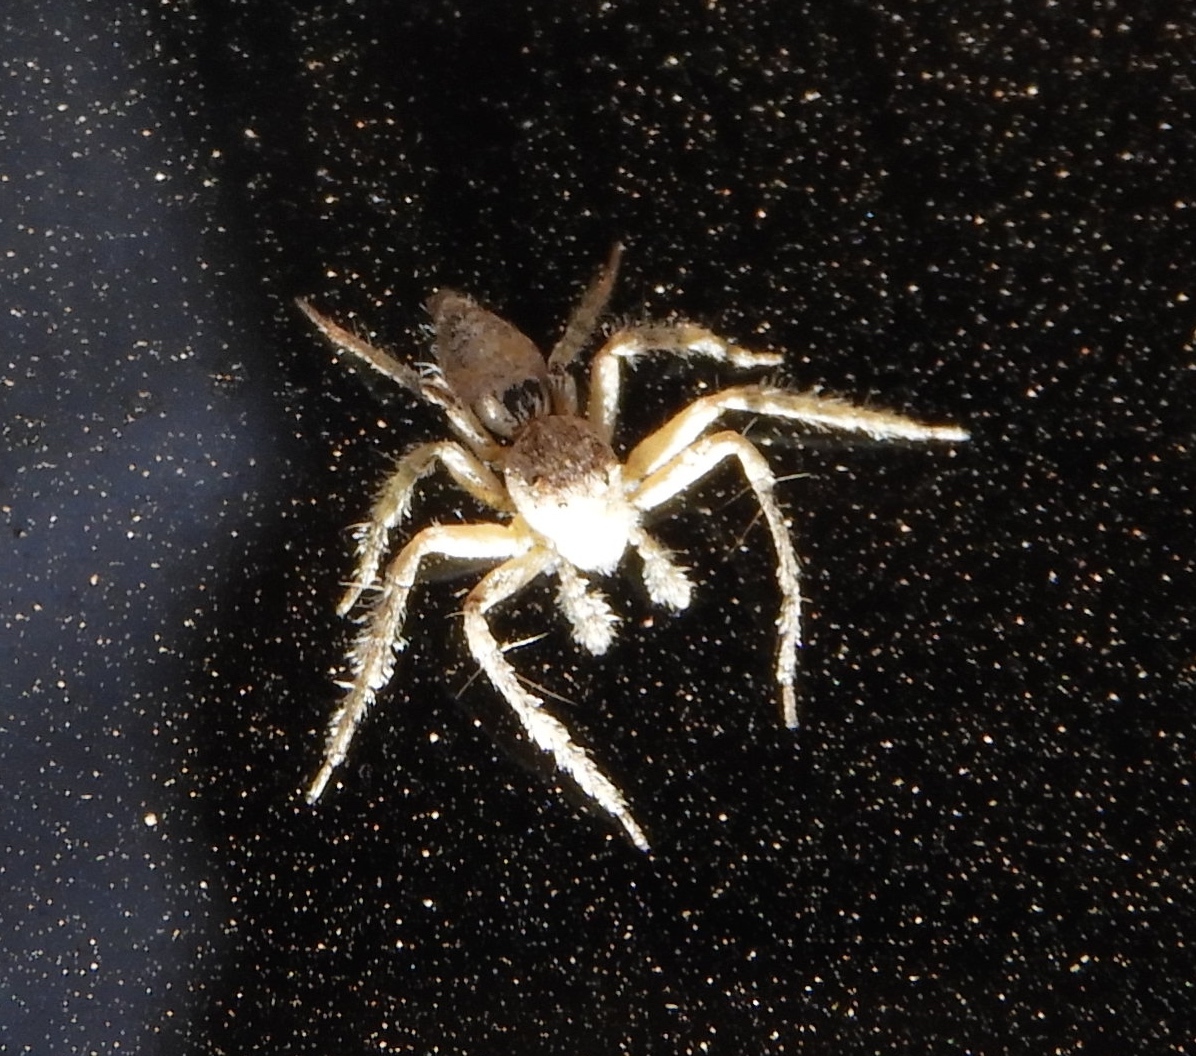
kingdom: Animalia
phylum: Arthropoda
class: Arachnida
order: Araneae
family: Oxyopidae
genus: Hamataliwa
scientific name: Hamataliwa
